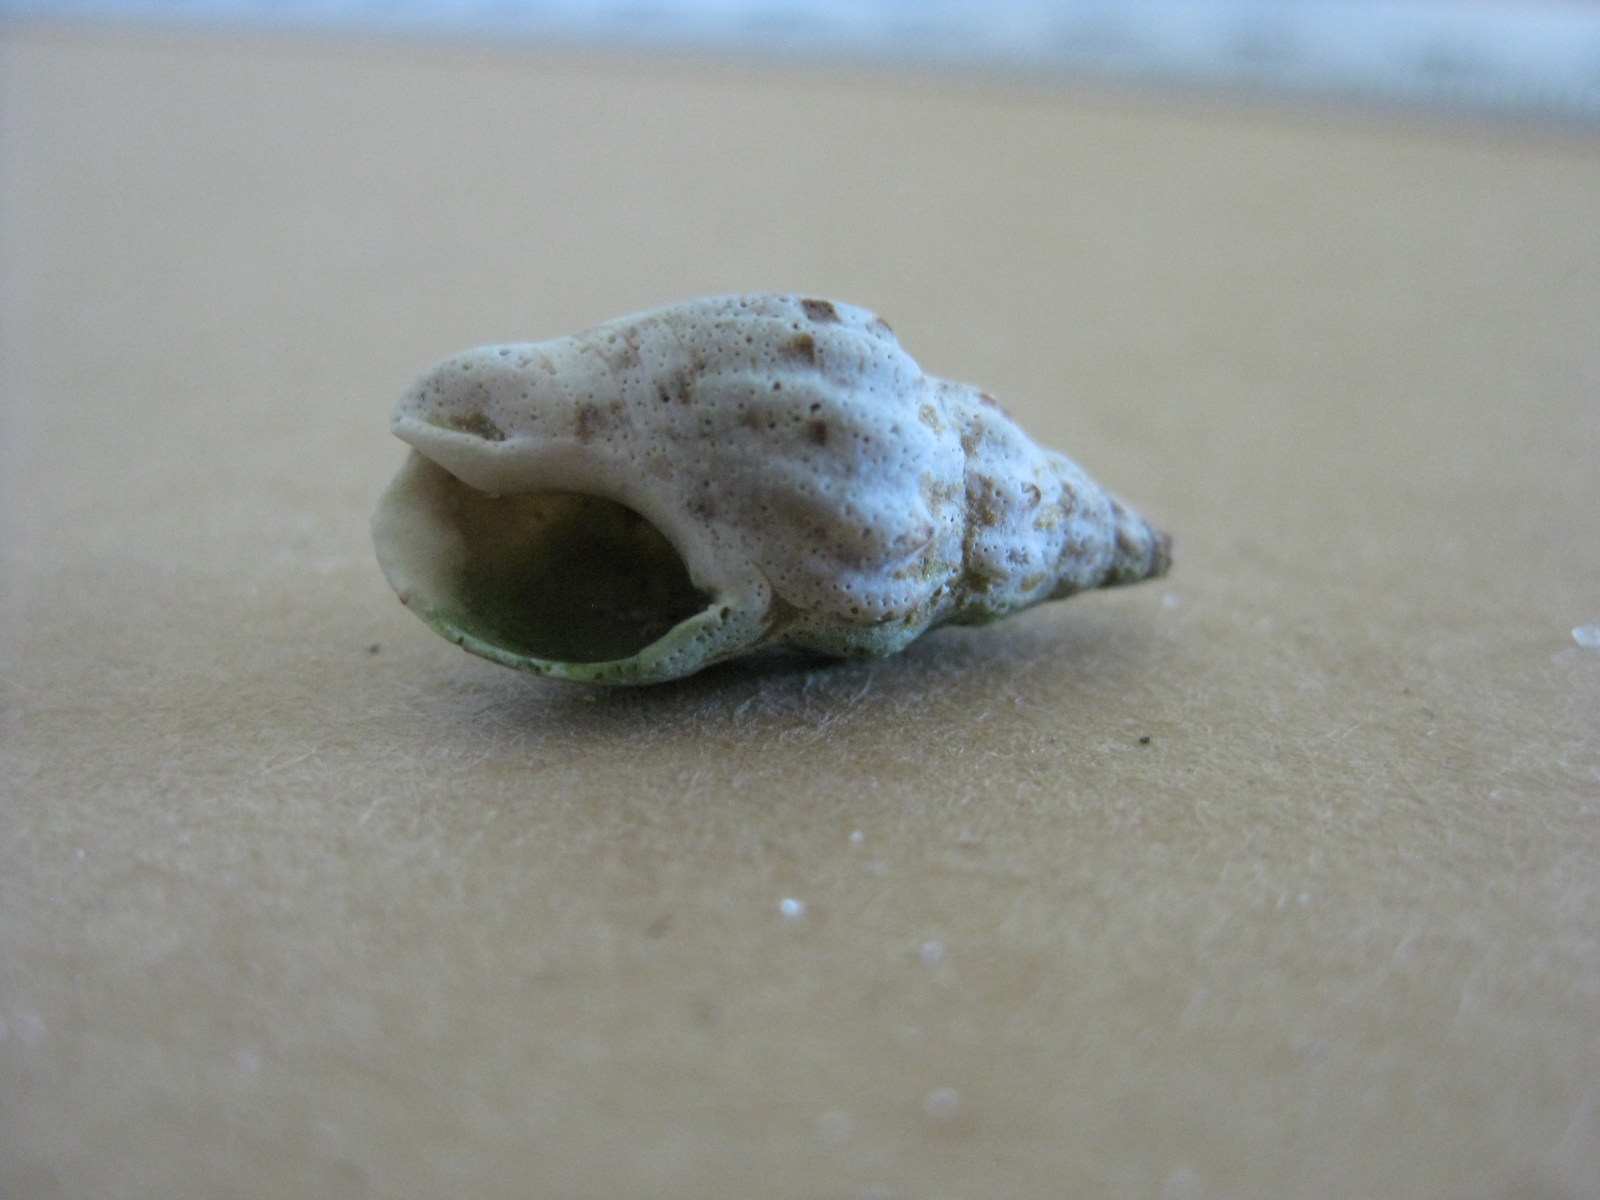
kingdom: Animalia
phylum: Mollusca
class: Gastropoda
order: Neogastropoda
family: Cominellidae
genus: Cominella
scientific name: Cominella quoyana
